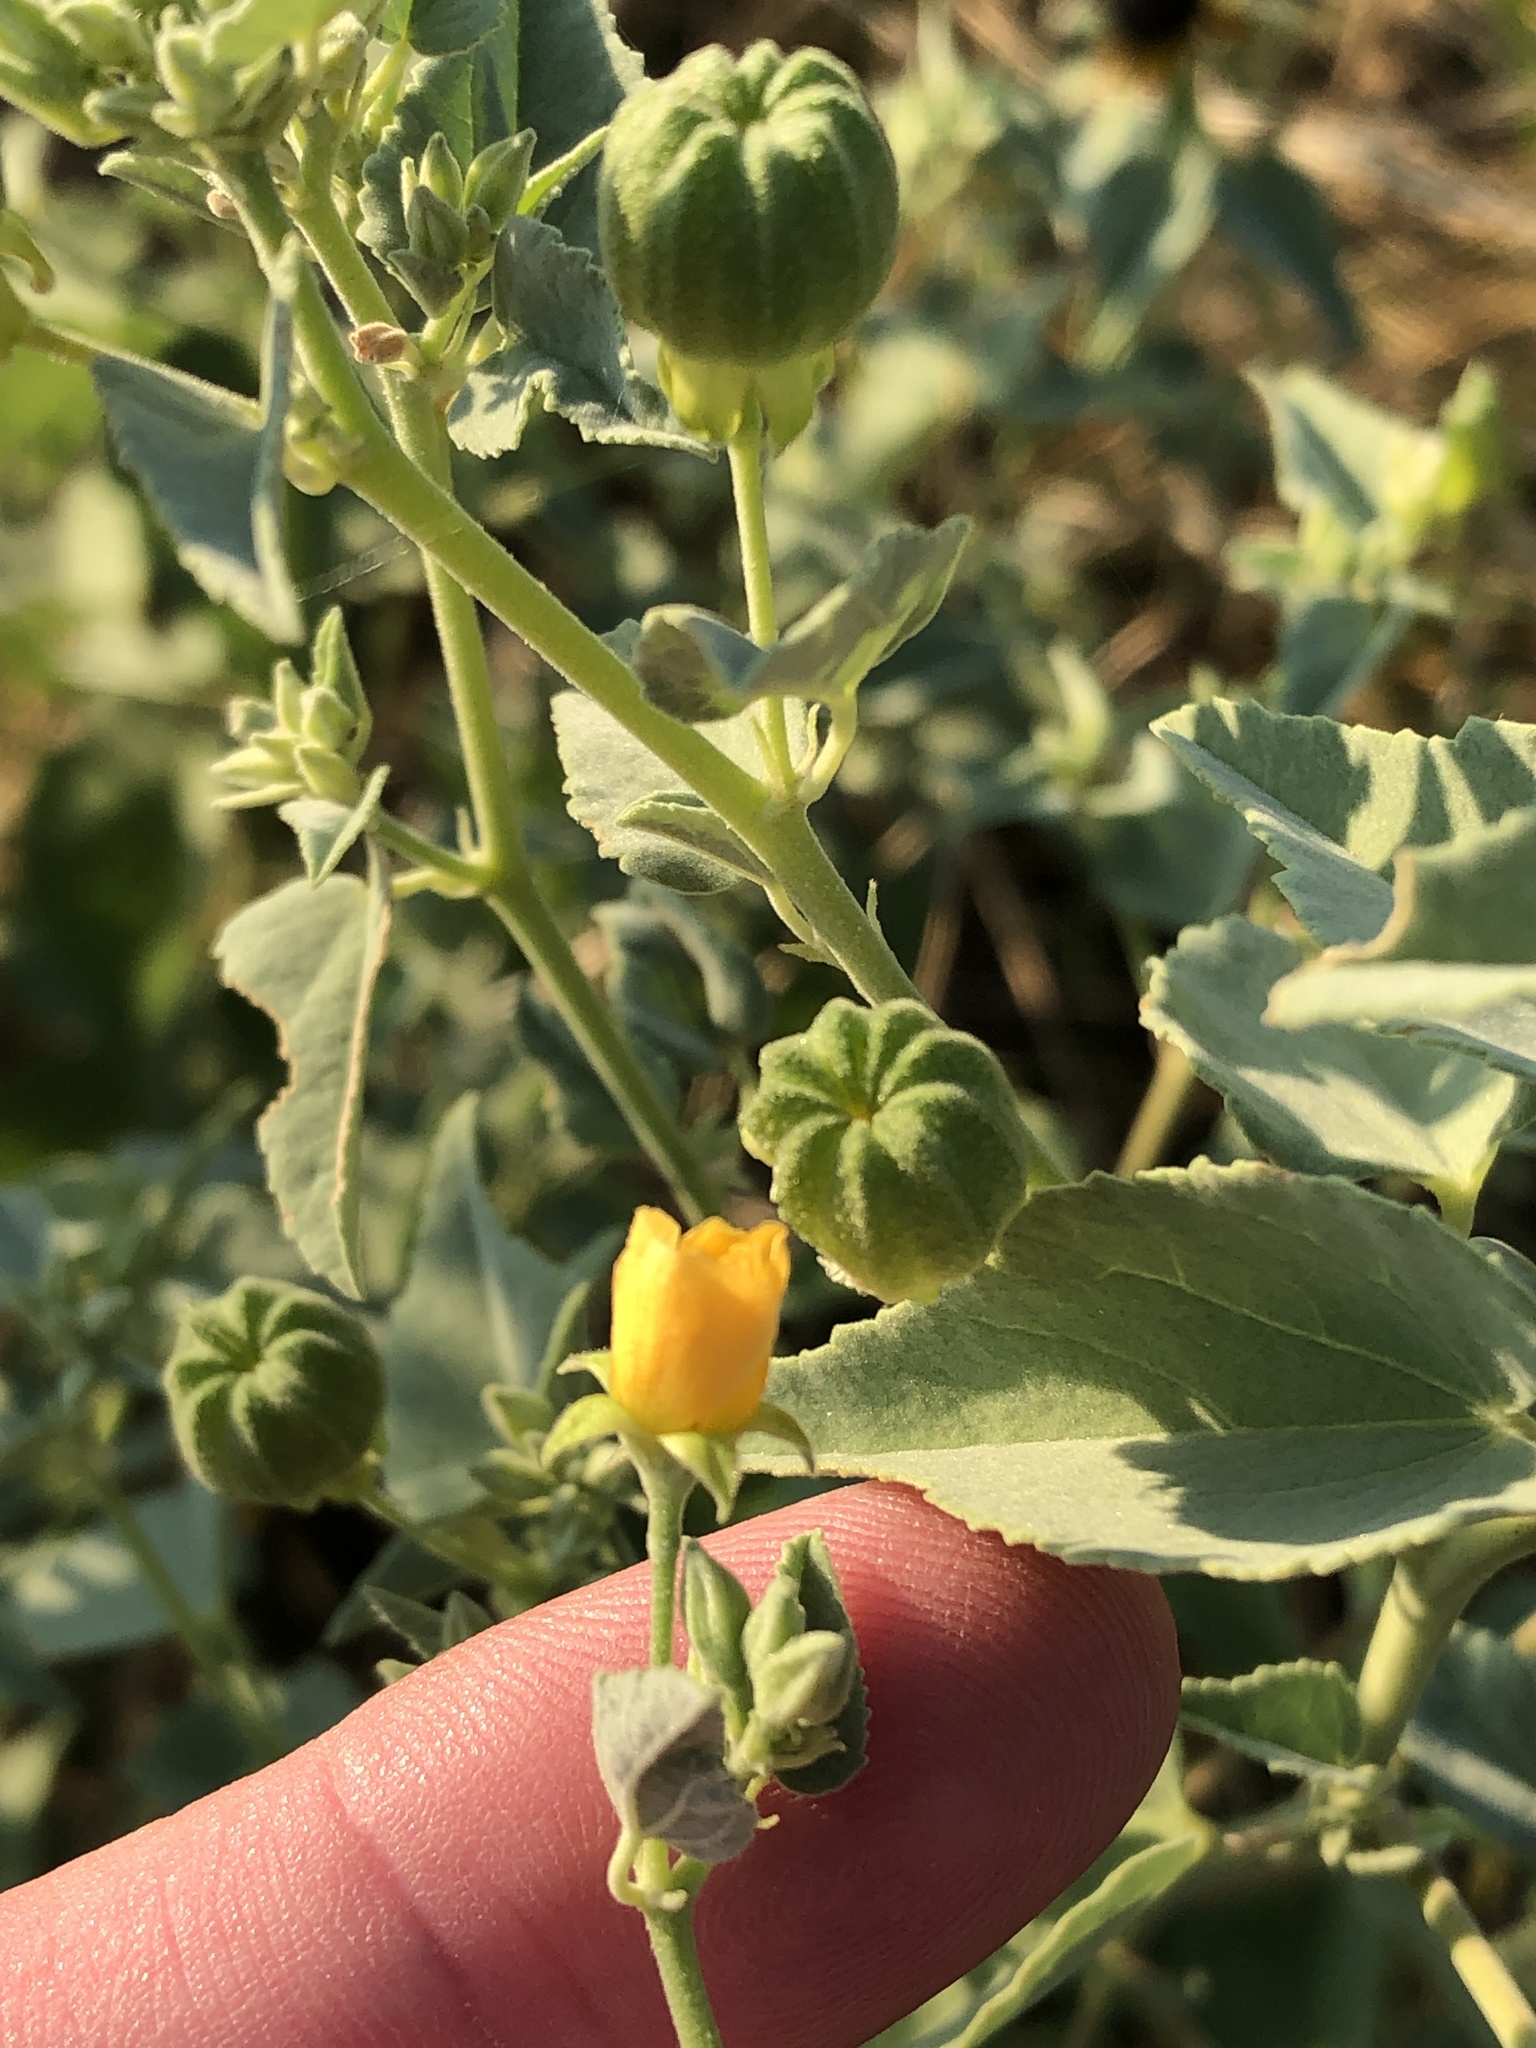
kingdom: Plantae
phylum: Tracheophyta
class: Magnoliopsida
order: Malvales
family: Malvaceae
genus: Abutilon
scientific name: Abutilon fruticosum
